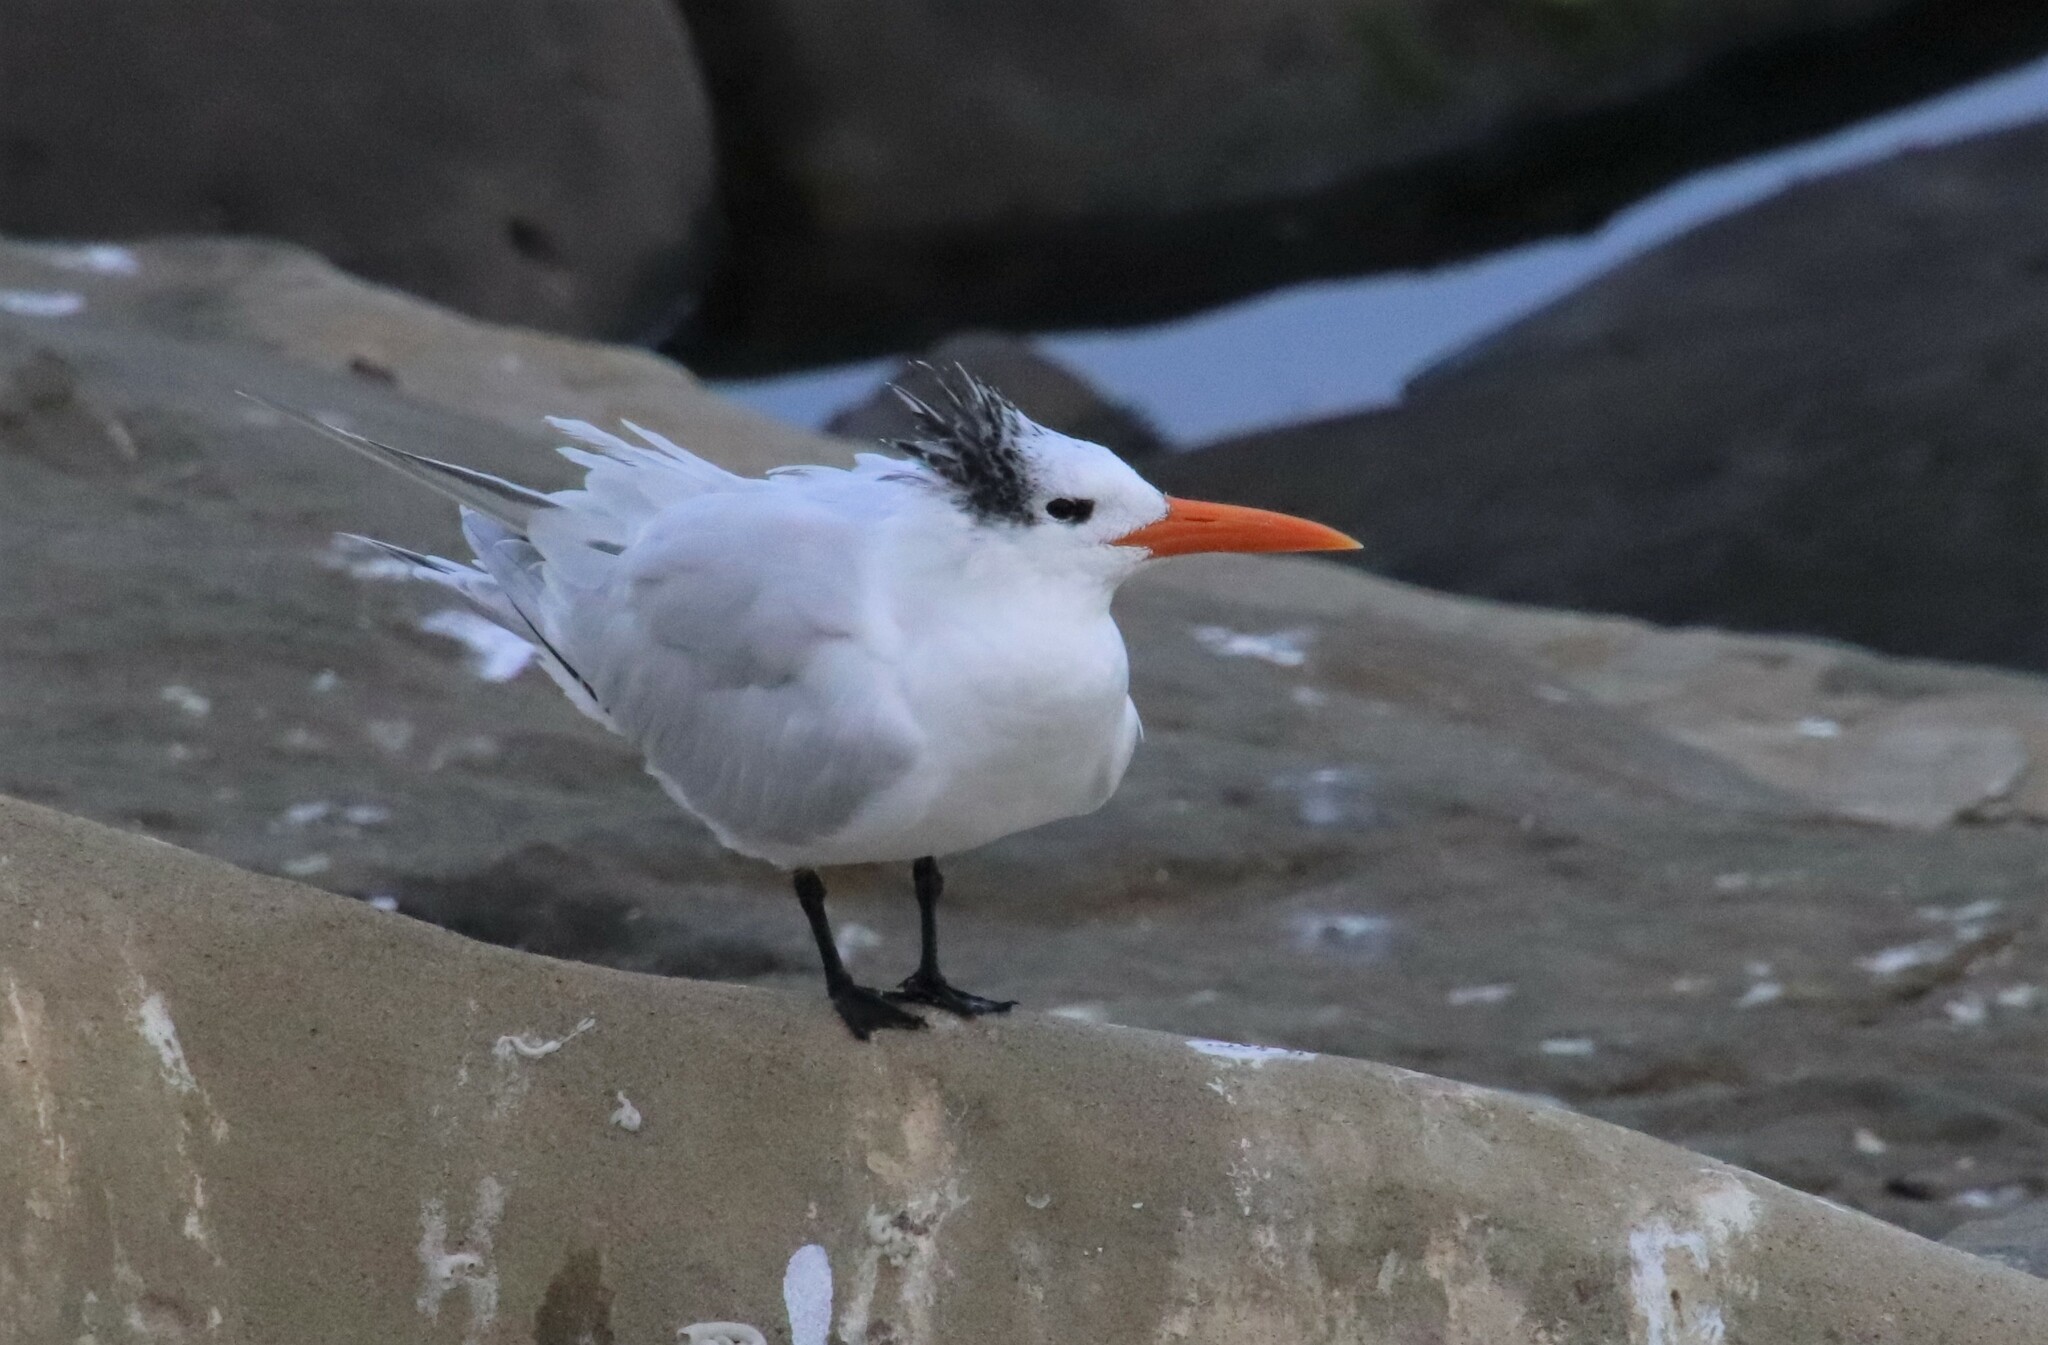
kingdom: Animalia
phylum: Chordata
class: Aves
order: Charadriiformes
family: Laridae
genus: Thalasseus
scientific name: Thalasseus maximus
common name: Royal tern
